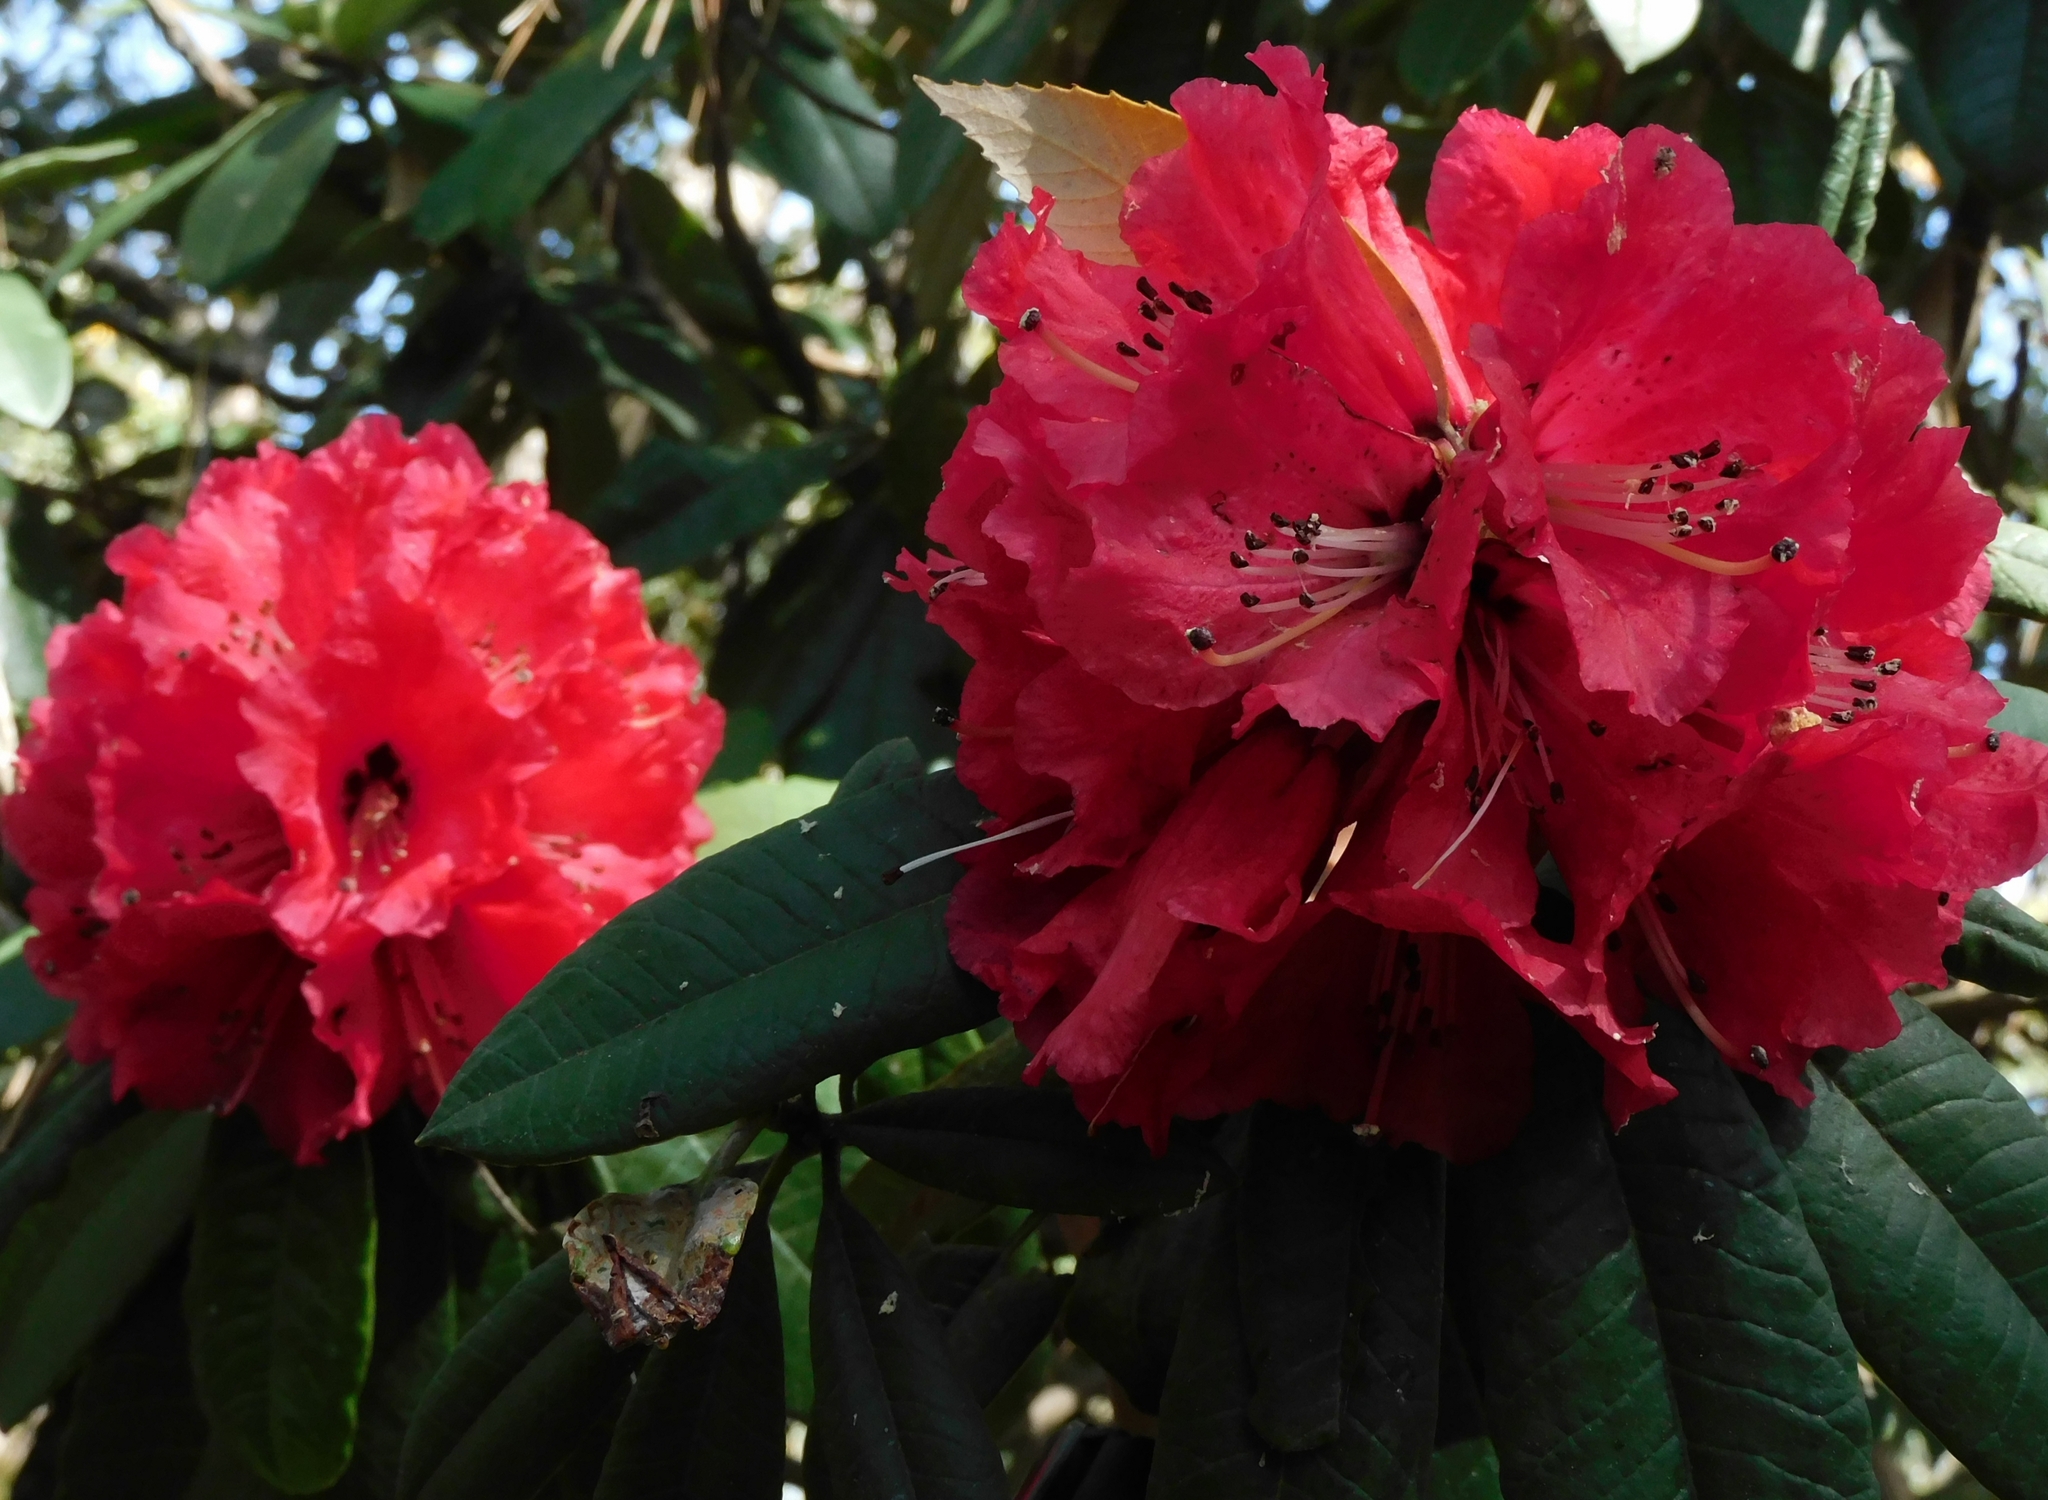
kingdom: Plantae
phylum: Tracheophyta
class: Magnoliopsida
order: Ericales
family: Ericaceae
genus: Rhododendron
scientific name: Rhododendron arboreum
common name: Tree rhododendron
